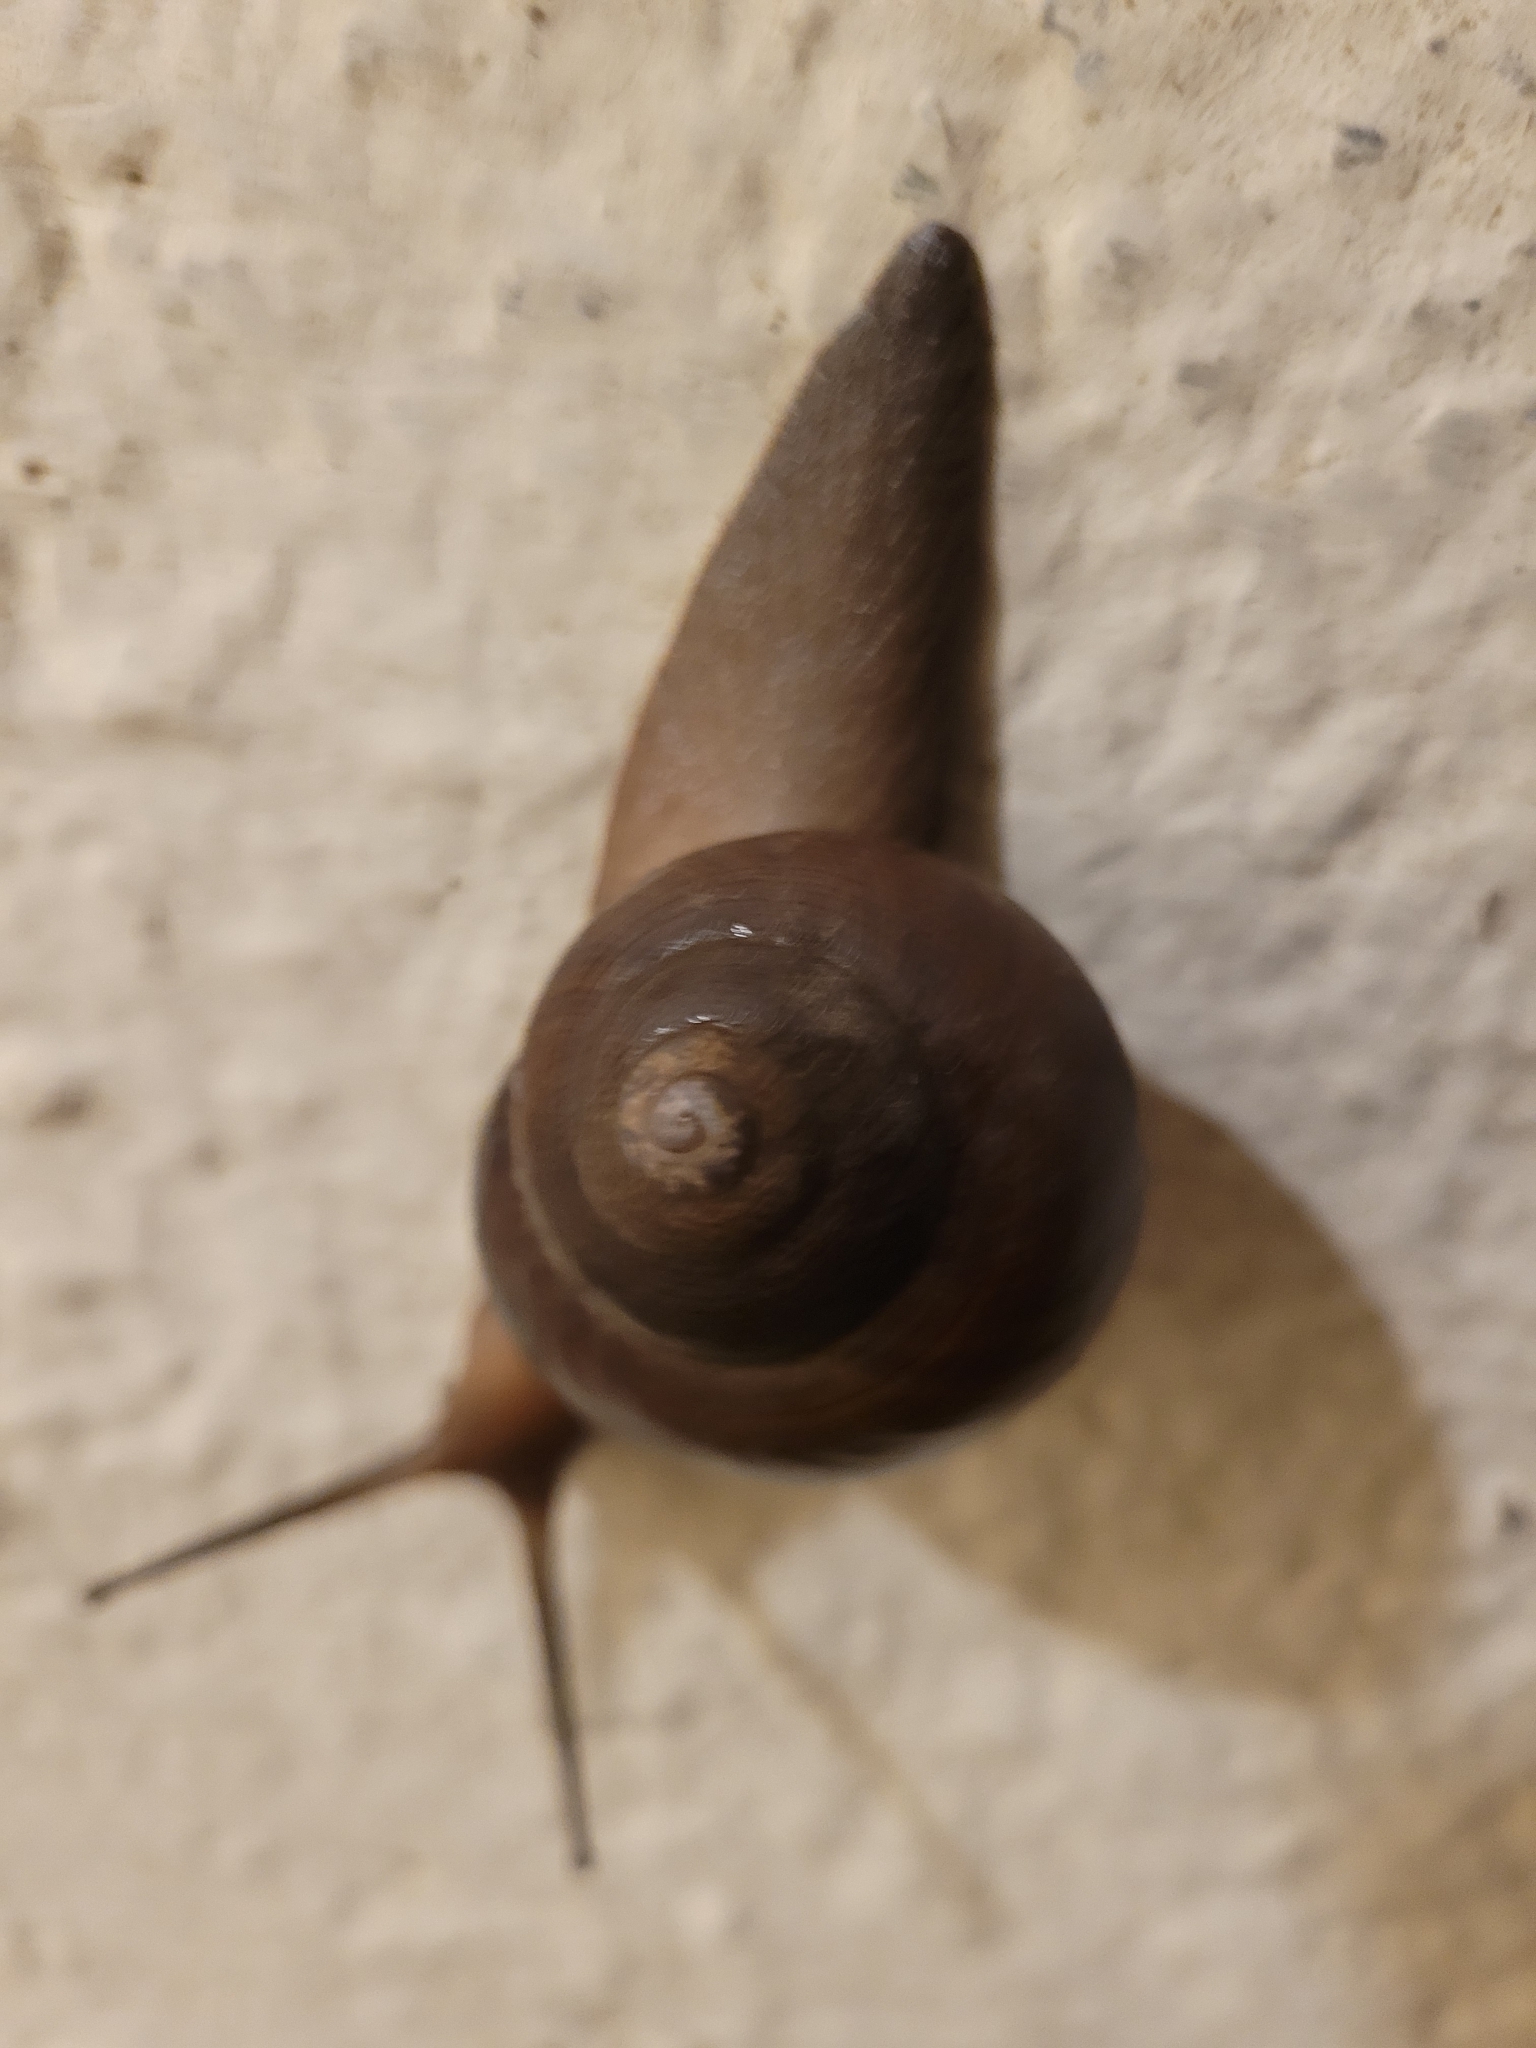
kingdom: Animalia
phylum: Mollusca
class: Gastropoda
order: Stylommatophora
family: Zachrysiidae
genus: Zachrysia
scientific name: Zachrysia provisoria
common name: Garden zachrysia
